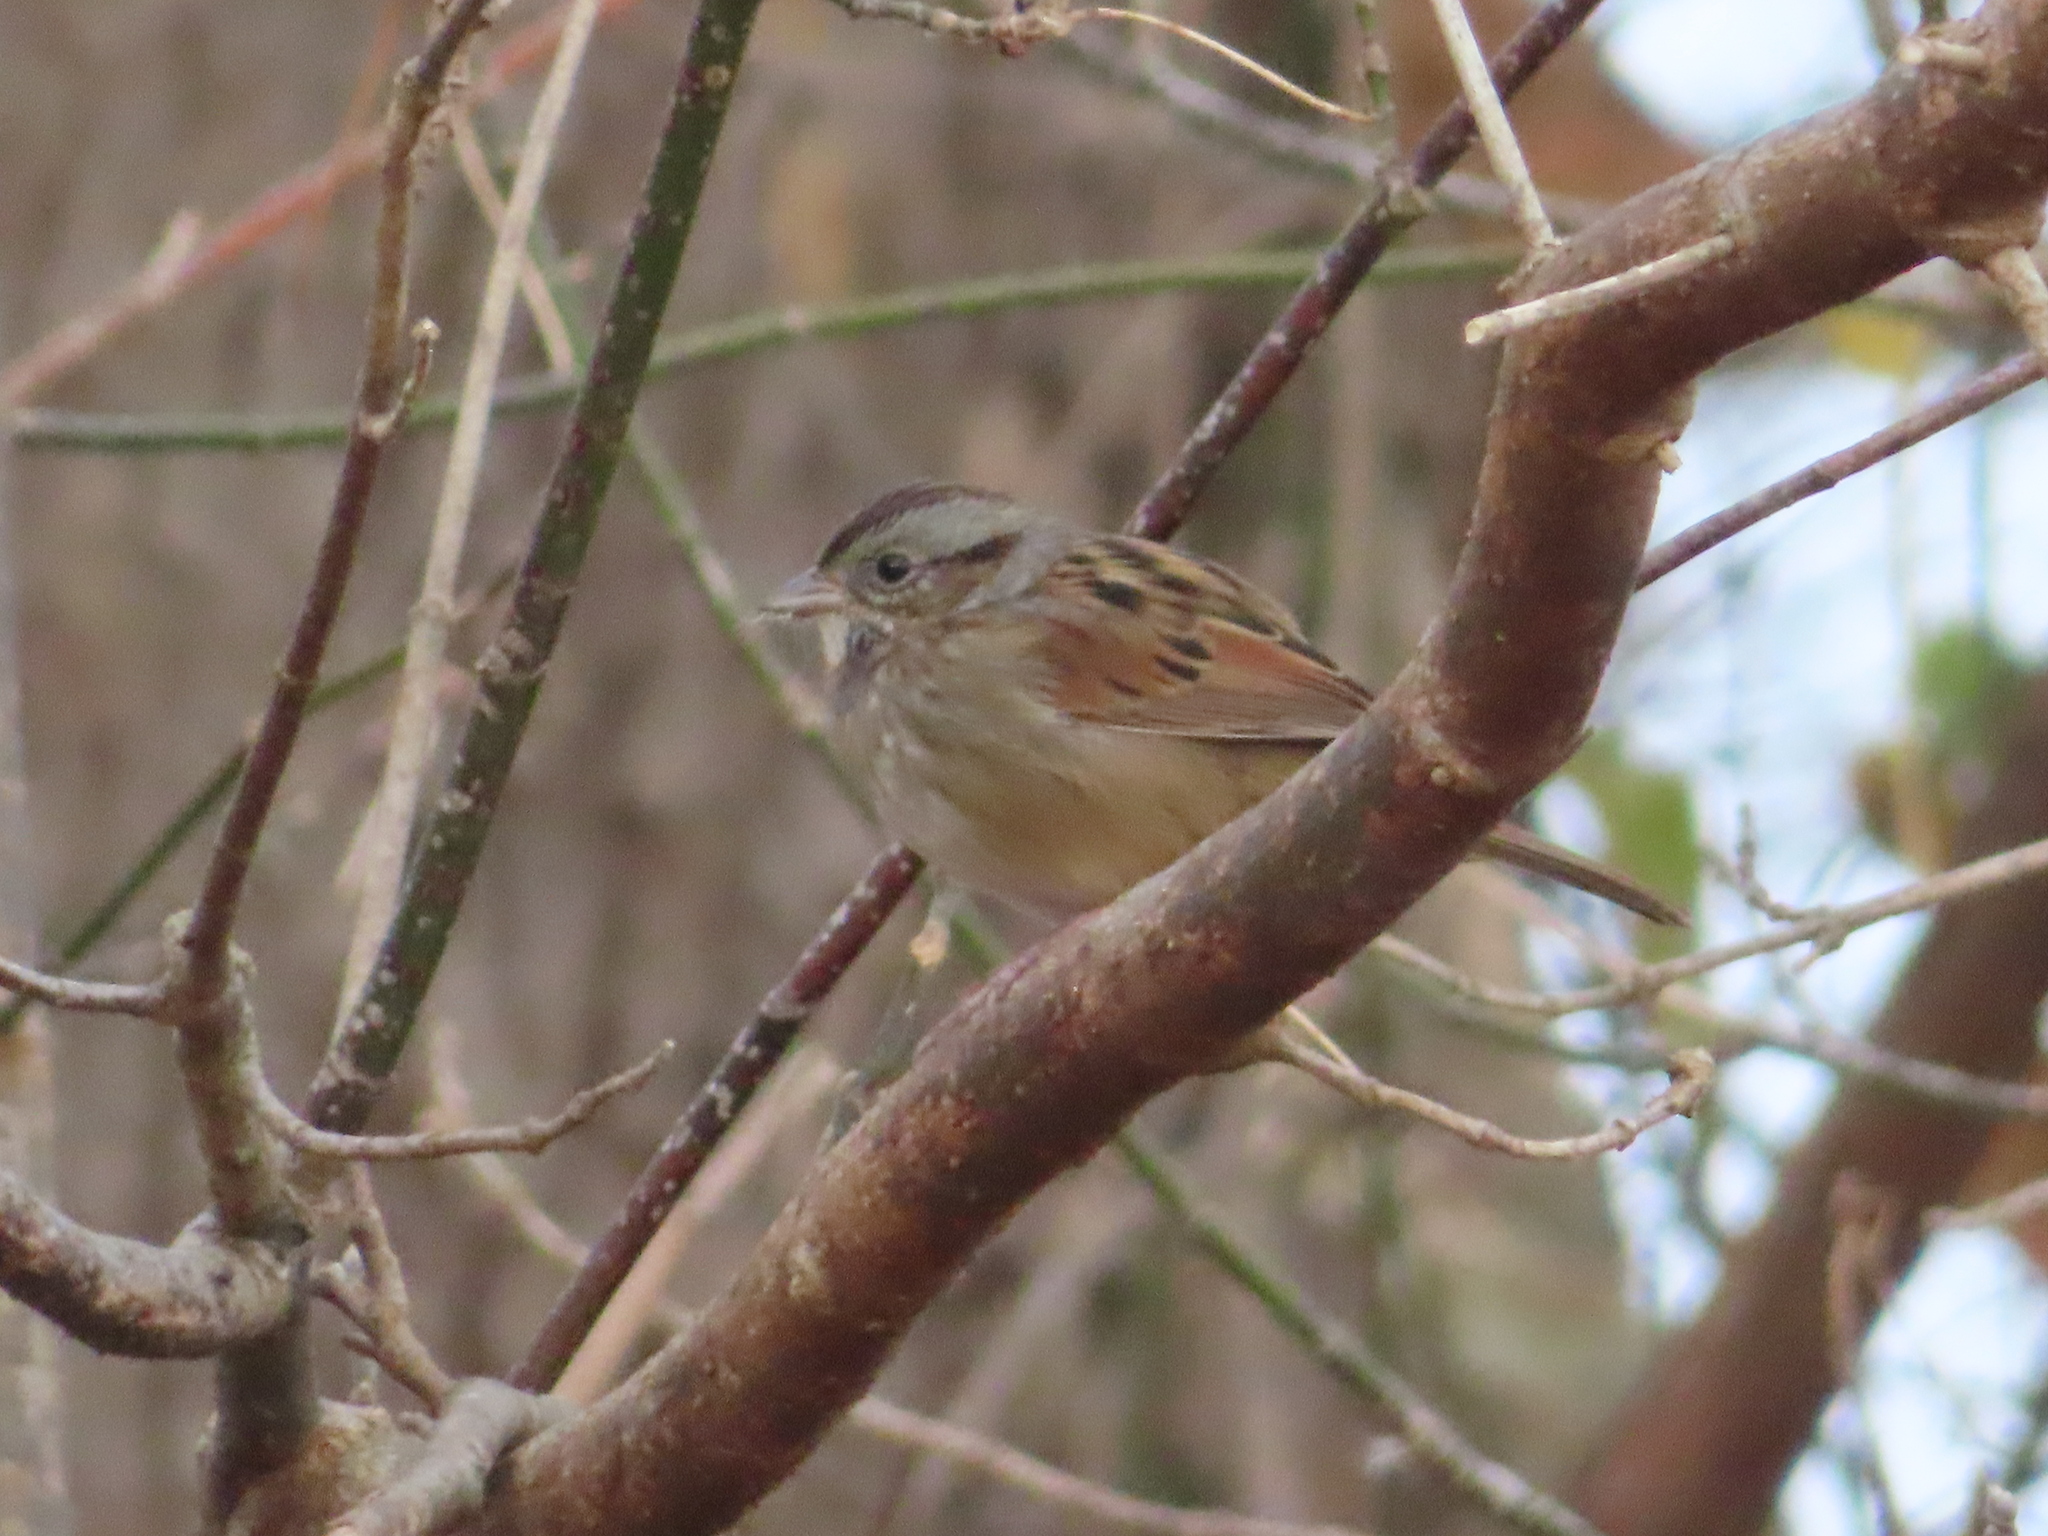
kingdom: Animalia
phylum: Chordata
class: Aves
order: Passeriformes
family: Passerellidae
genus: Melospiza
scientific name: Melospiza georgiana
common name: Swamp sparrow
